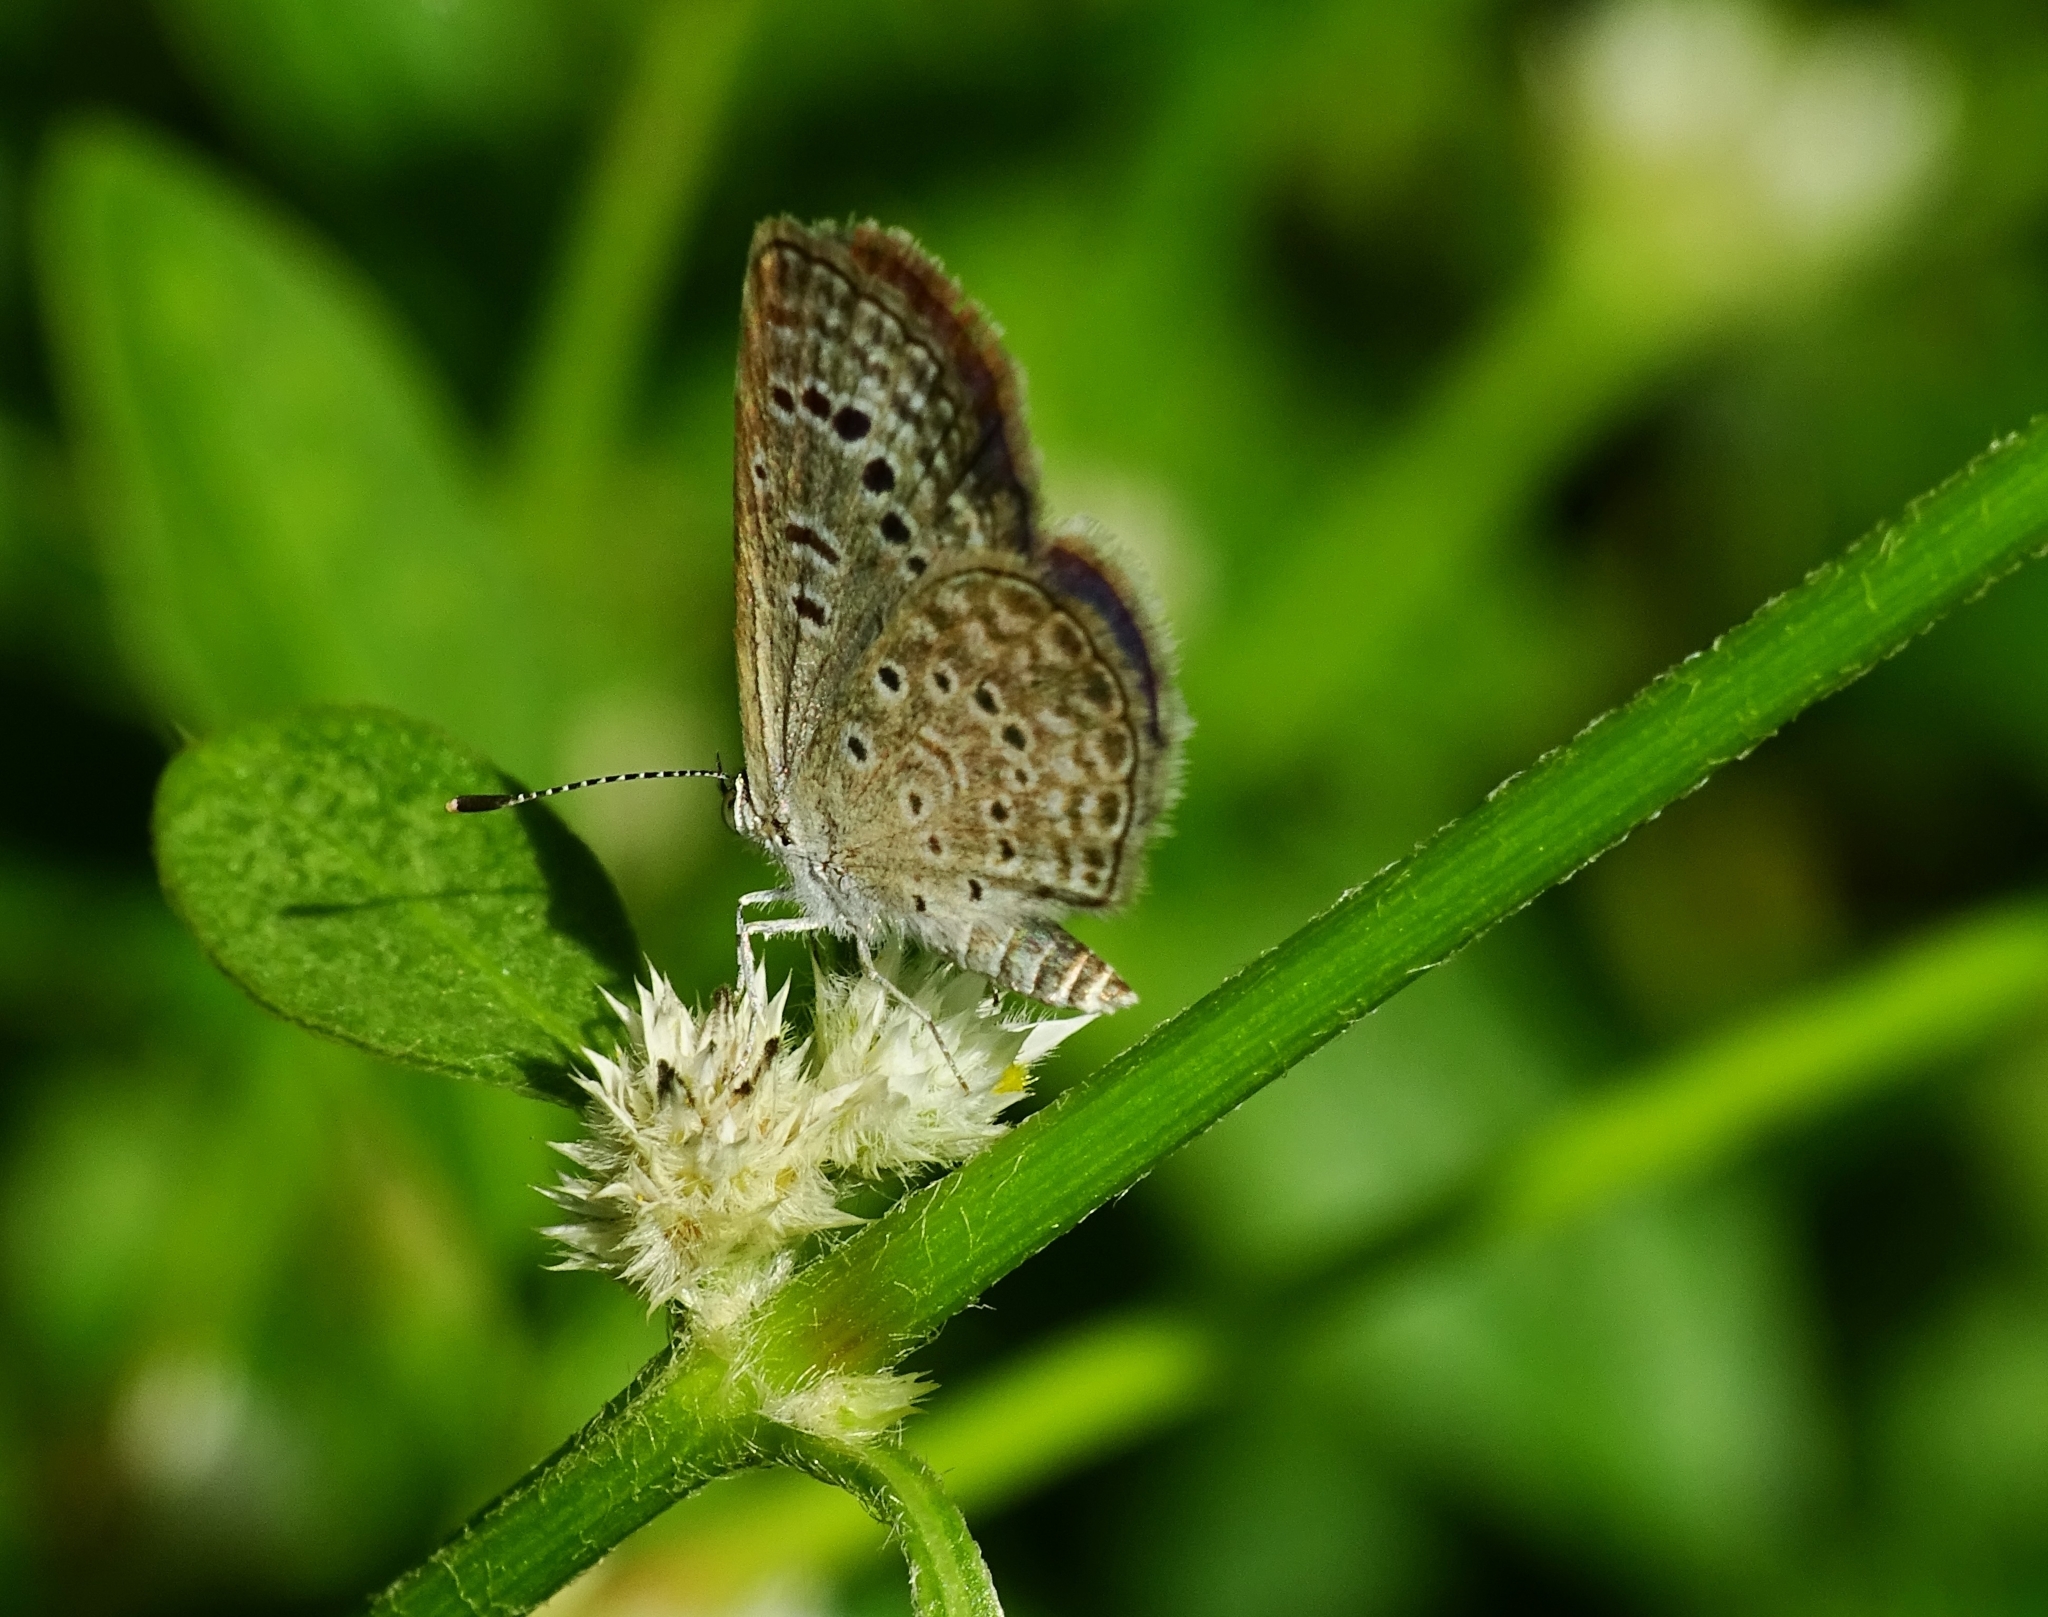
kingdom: Animalia
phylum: Arthropoda
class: Insecta
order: Lepidoptera
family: Lycaenidae
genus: Zizeeria
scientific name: Zizeeria karsandra
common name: Dark grass blue
